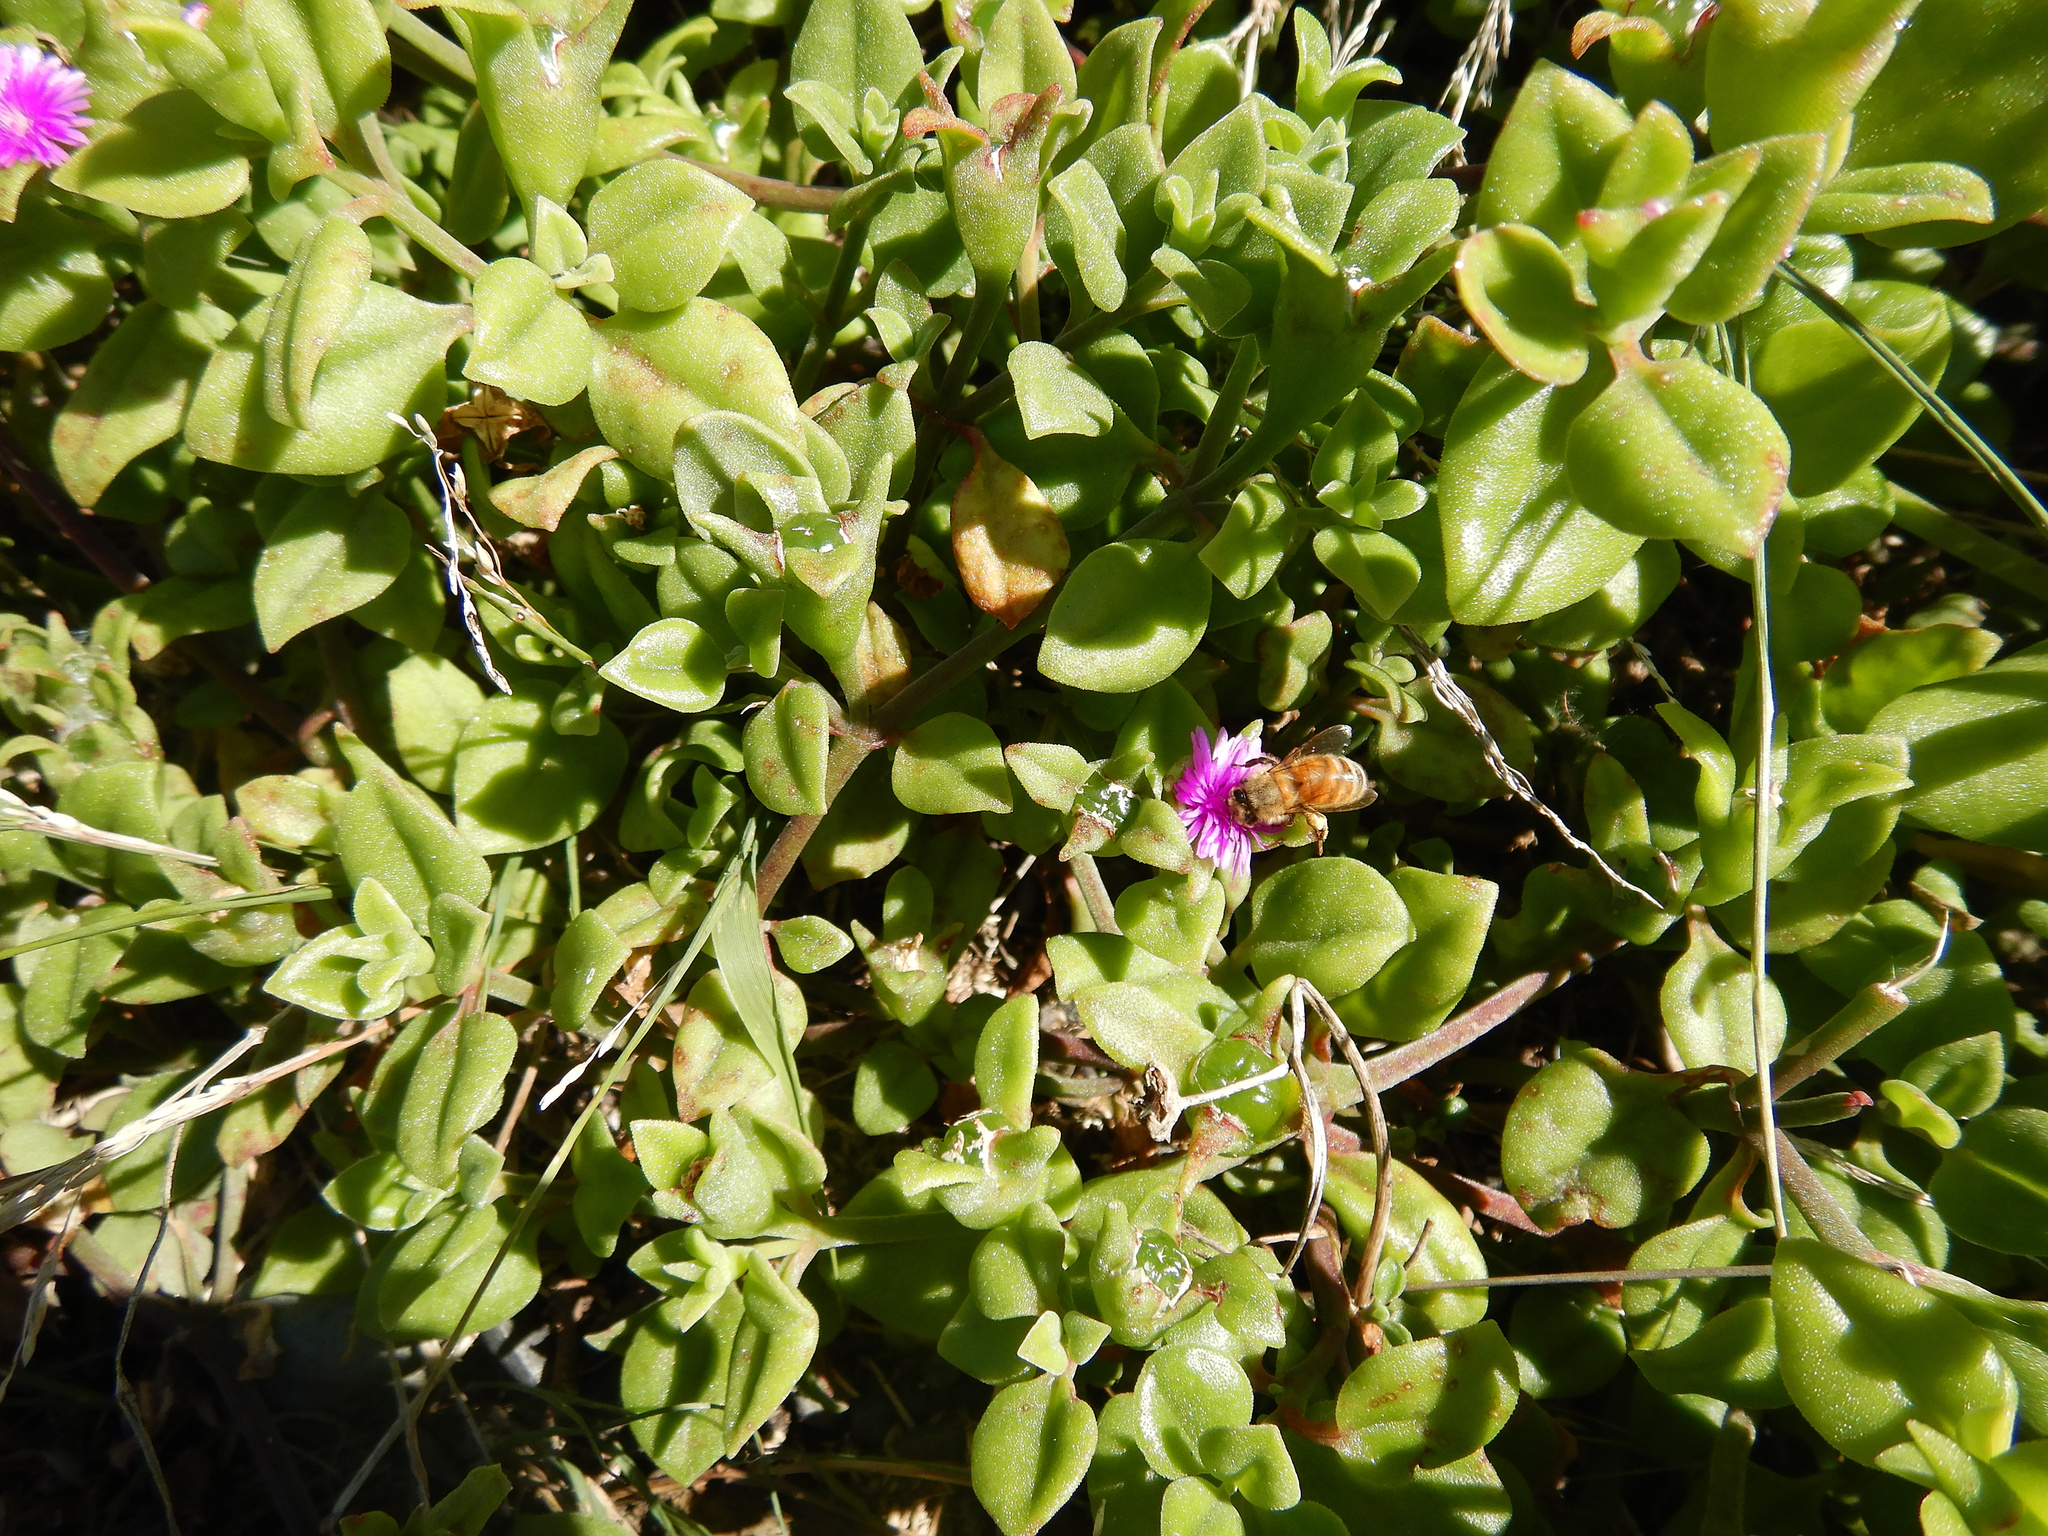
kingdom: Plantae
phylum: Tracheophyta
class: Magnoliopsida
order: Caryophyllales
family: Aizoaceae
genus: Mesembryanthemum
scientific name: Mesembryanthemum cordifolium
